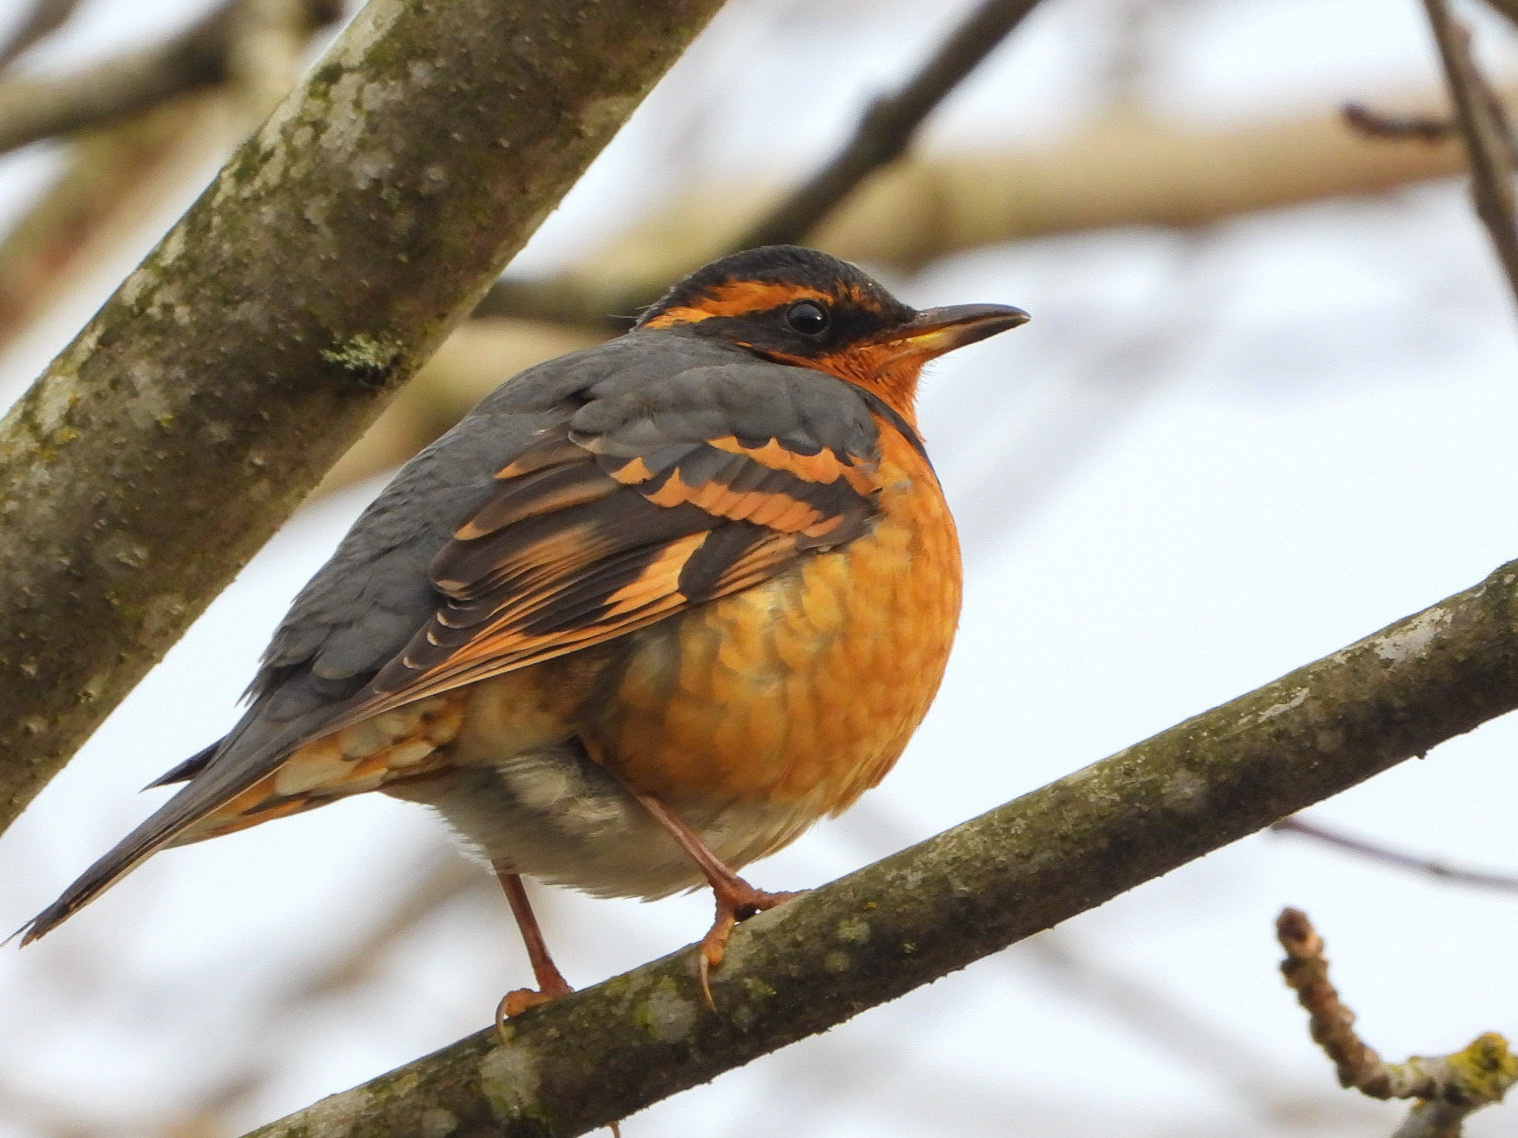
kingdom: Animalia
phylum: Chordata
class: Aves
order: Passeriformes
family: Turdidae
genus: Ixoreus
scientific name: Ixoreus naevius
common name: Varied thrush
